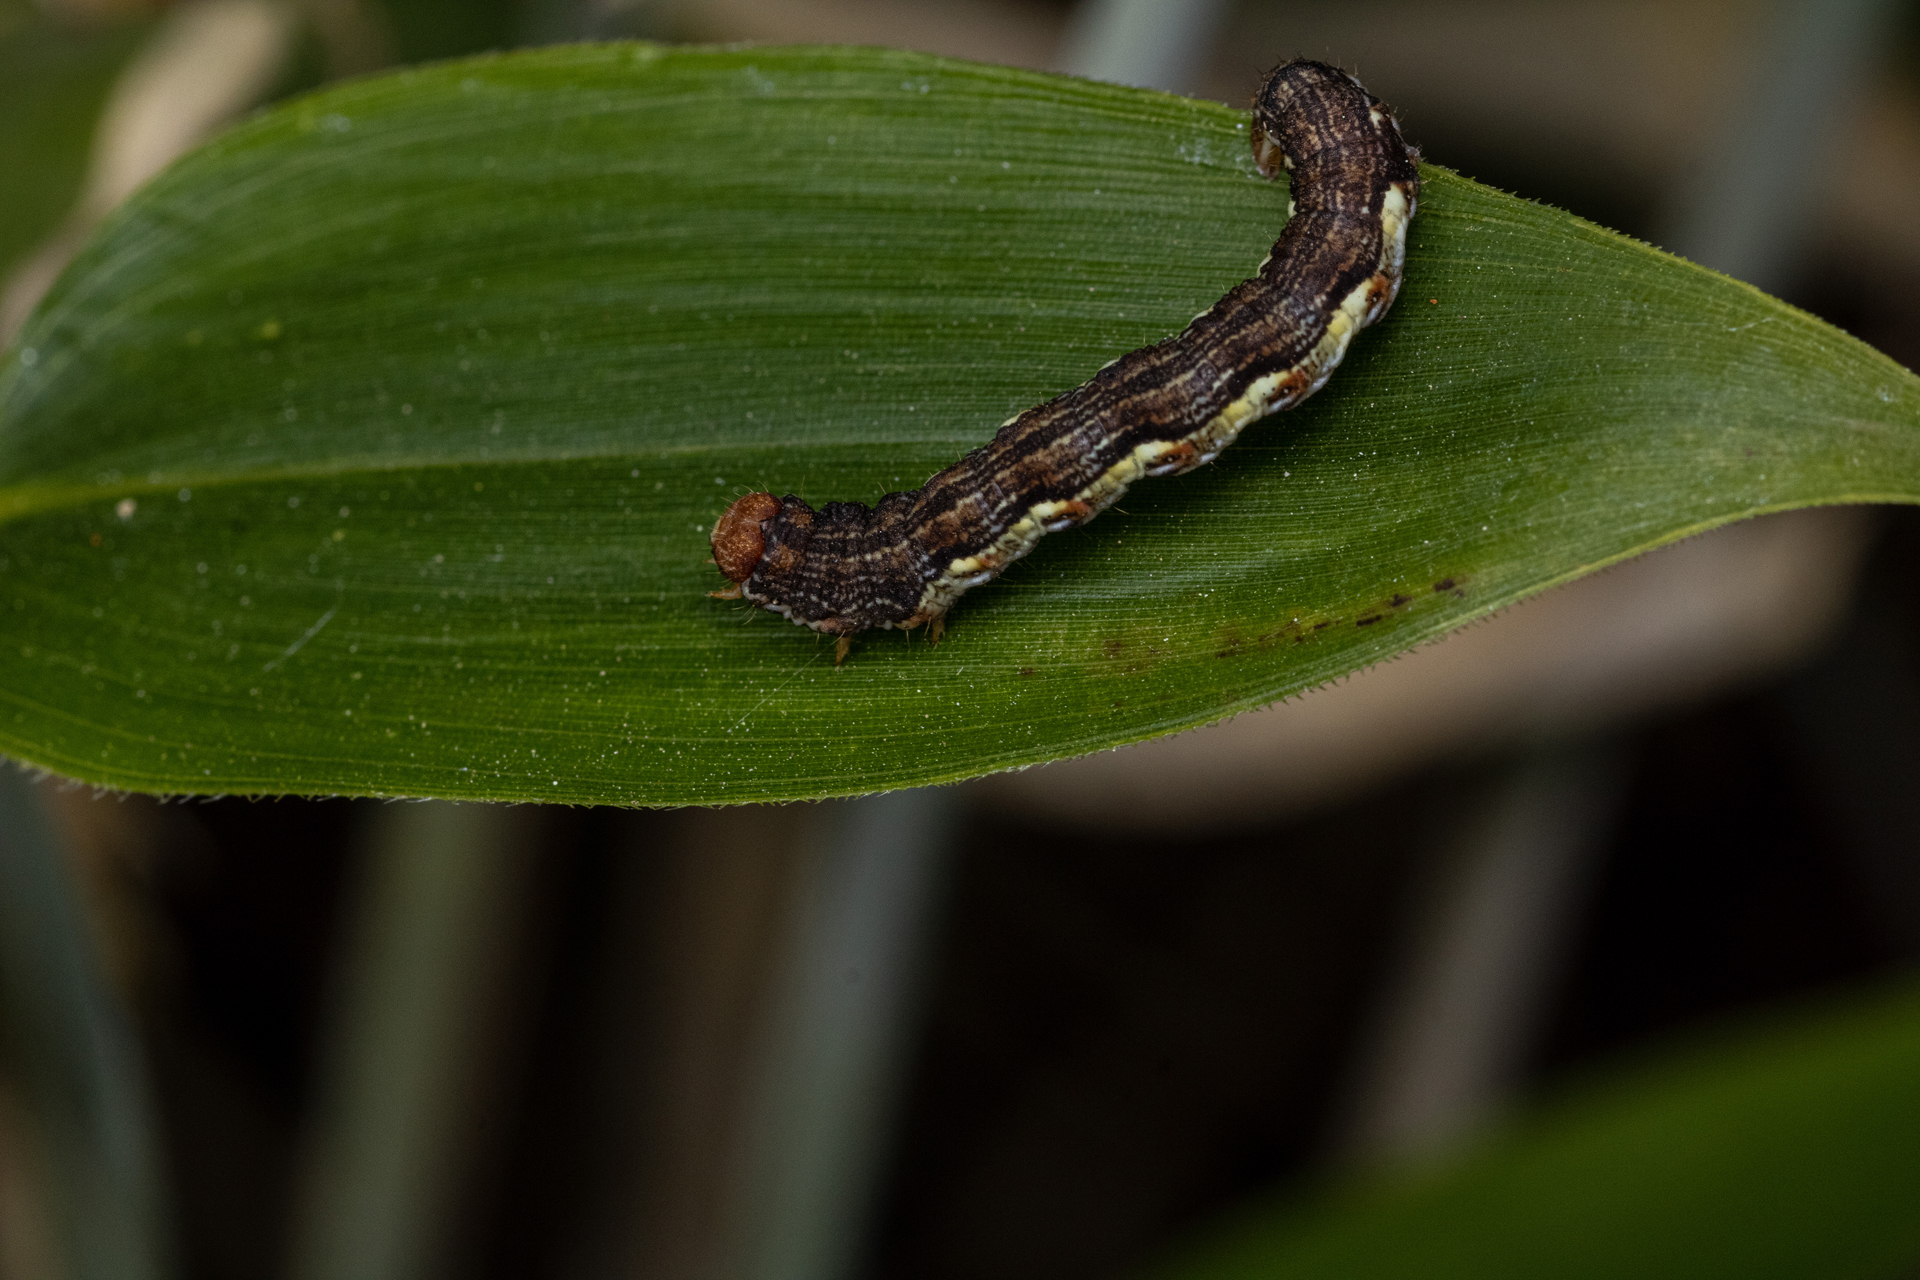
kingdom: Animalia
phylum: Arthropoda
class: Insecta
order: Lepidoptera
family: Geometridae
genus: Erannis
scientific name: Erannis defoliaria
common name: Mottled umber
